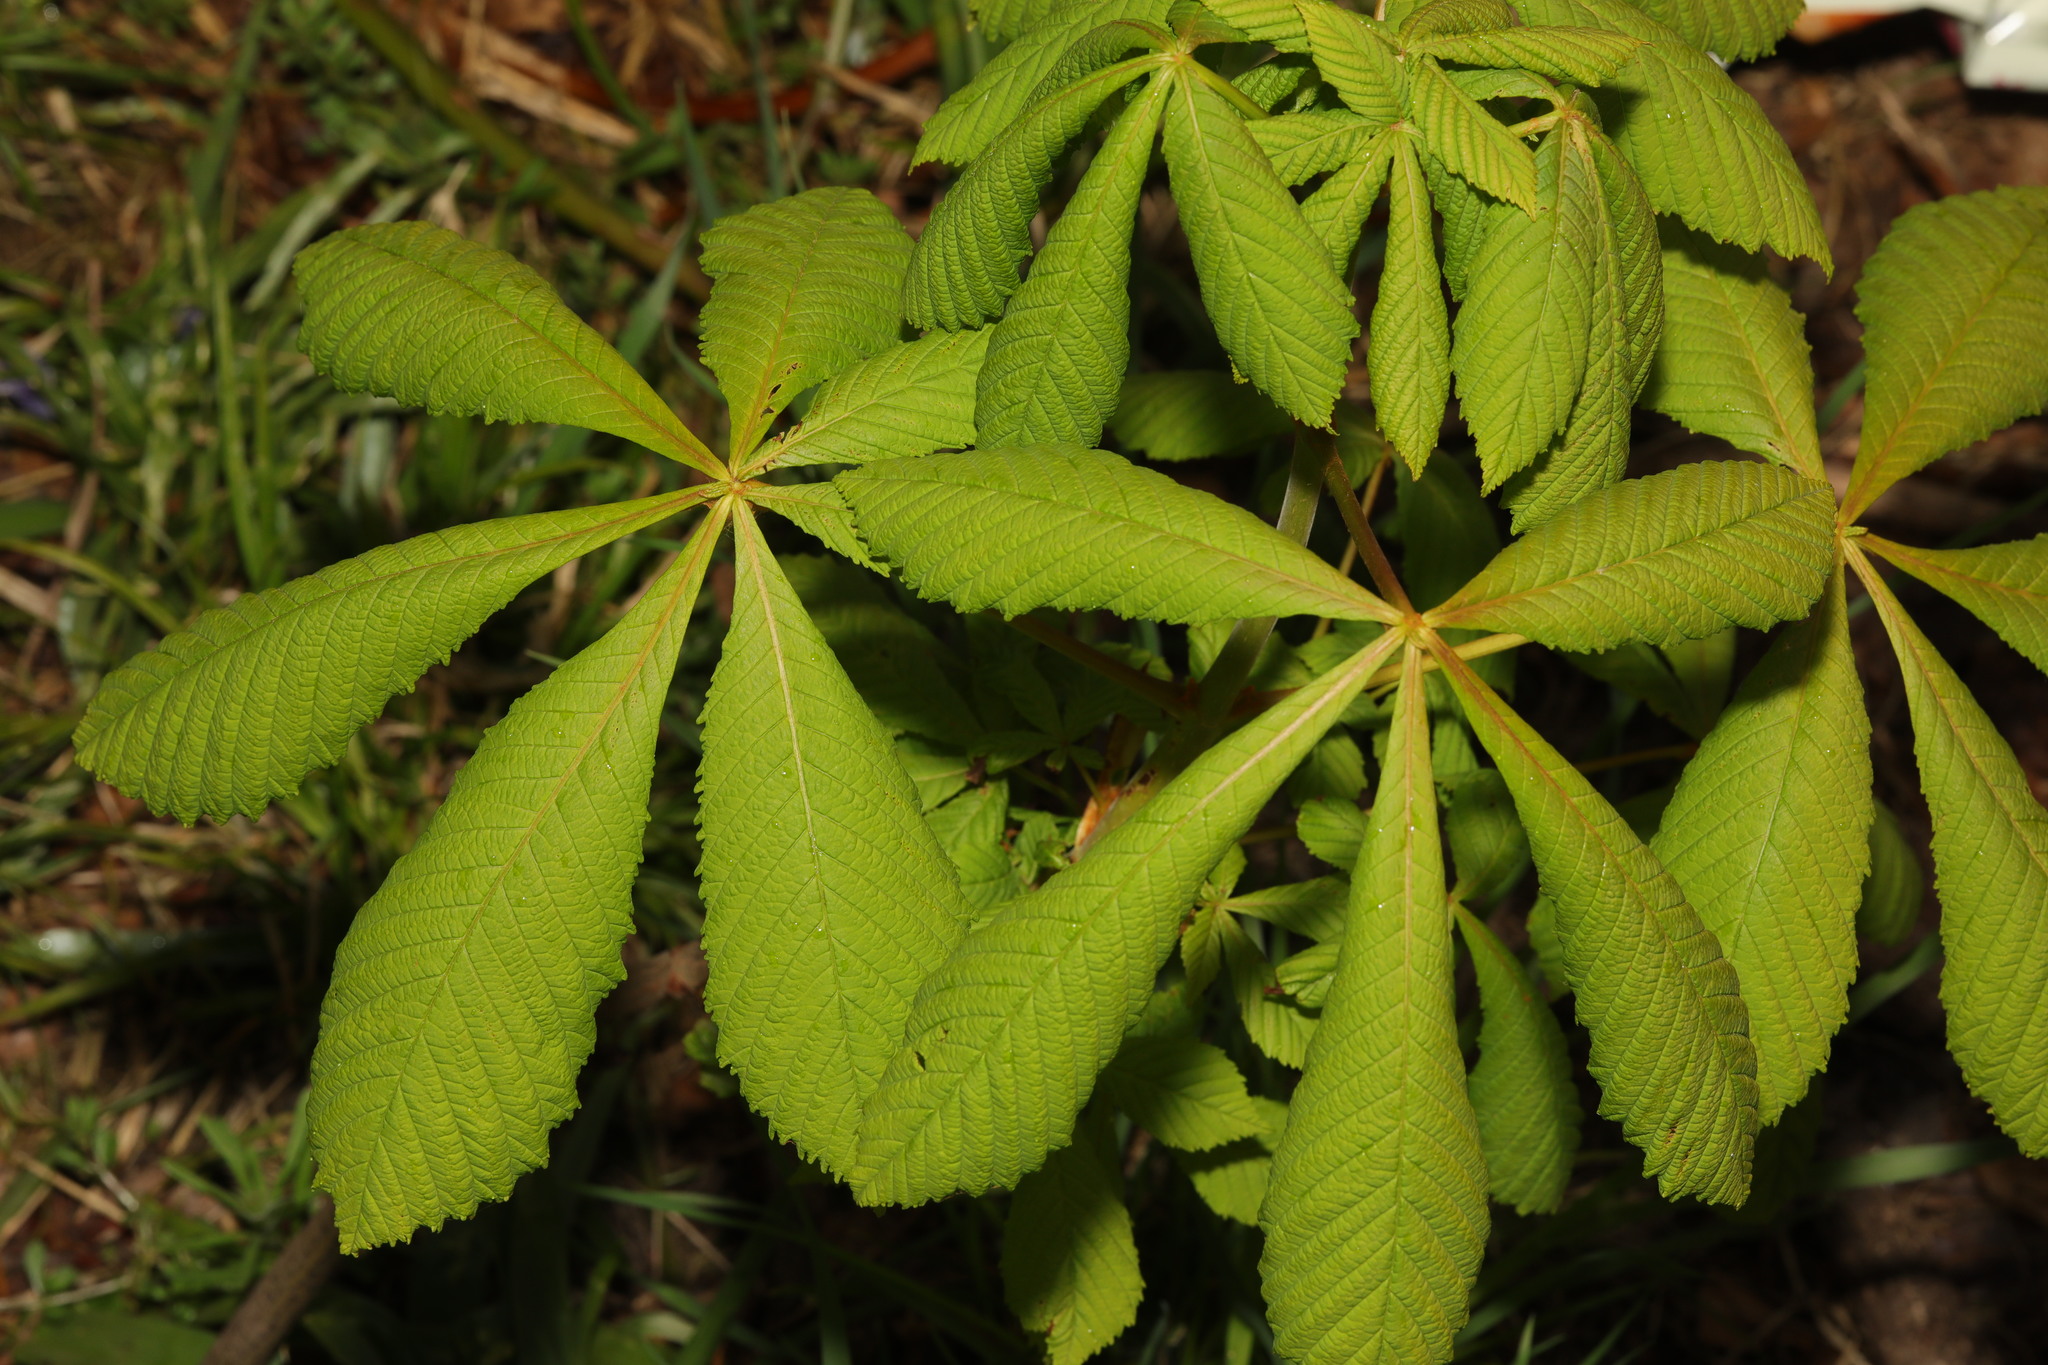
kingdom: Plantae
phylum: Tracheophyta
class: Magnoliopsida
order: Sapindales
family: Sapindaceae
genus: Aesculus
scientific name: Aesculus hippocastanum
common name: Horse-chestnut
